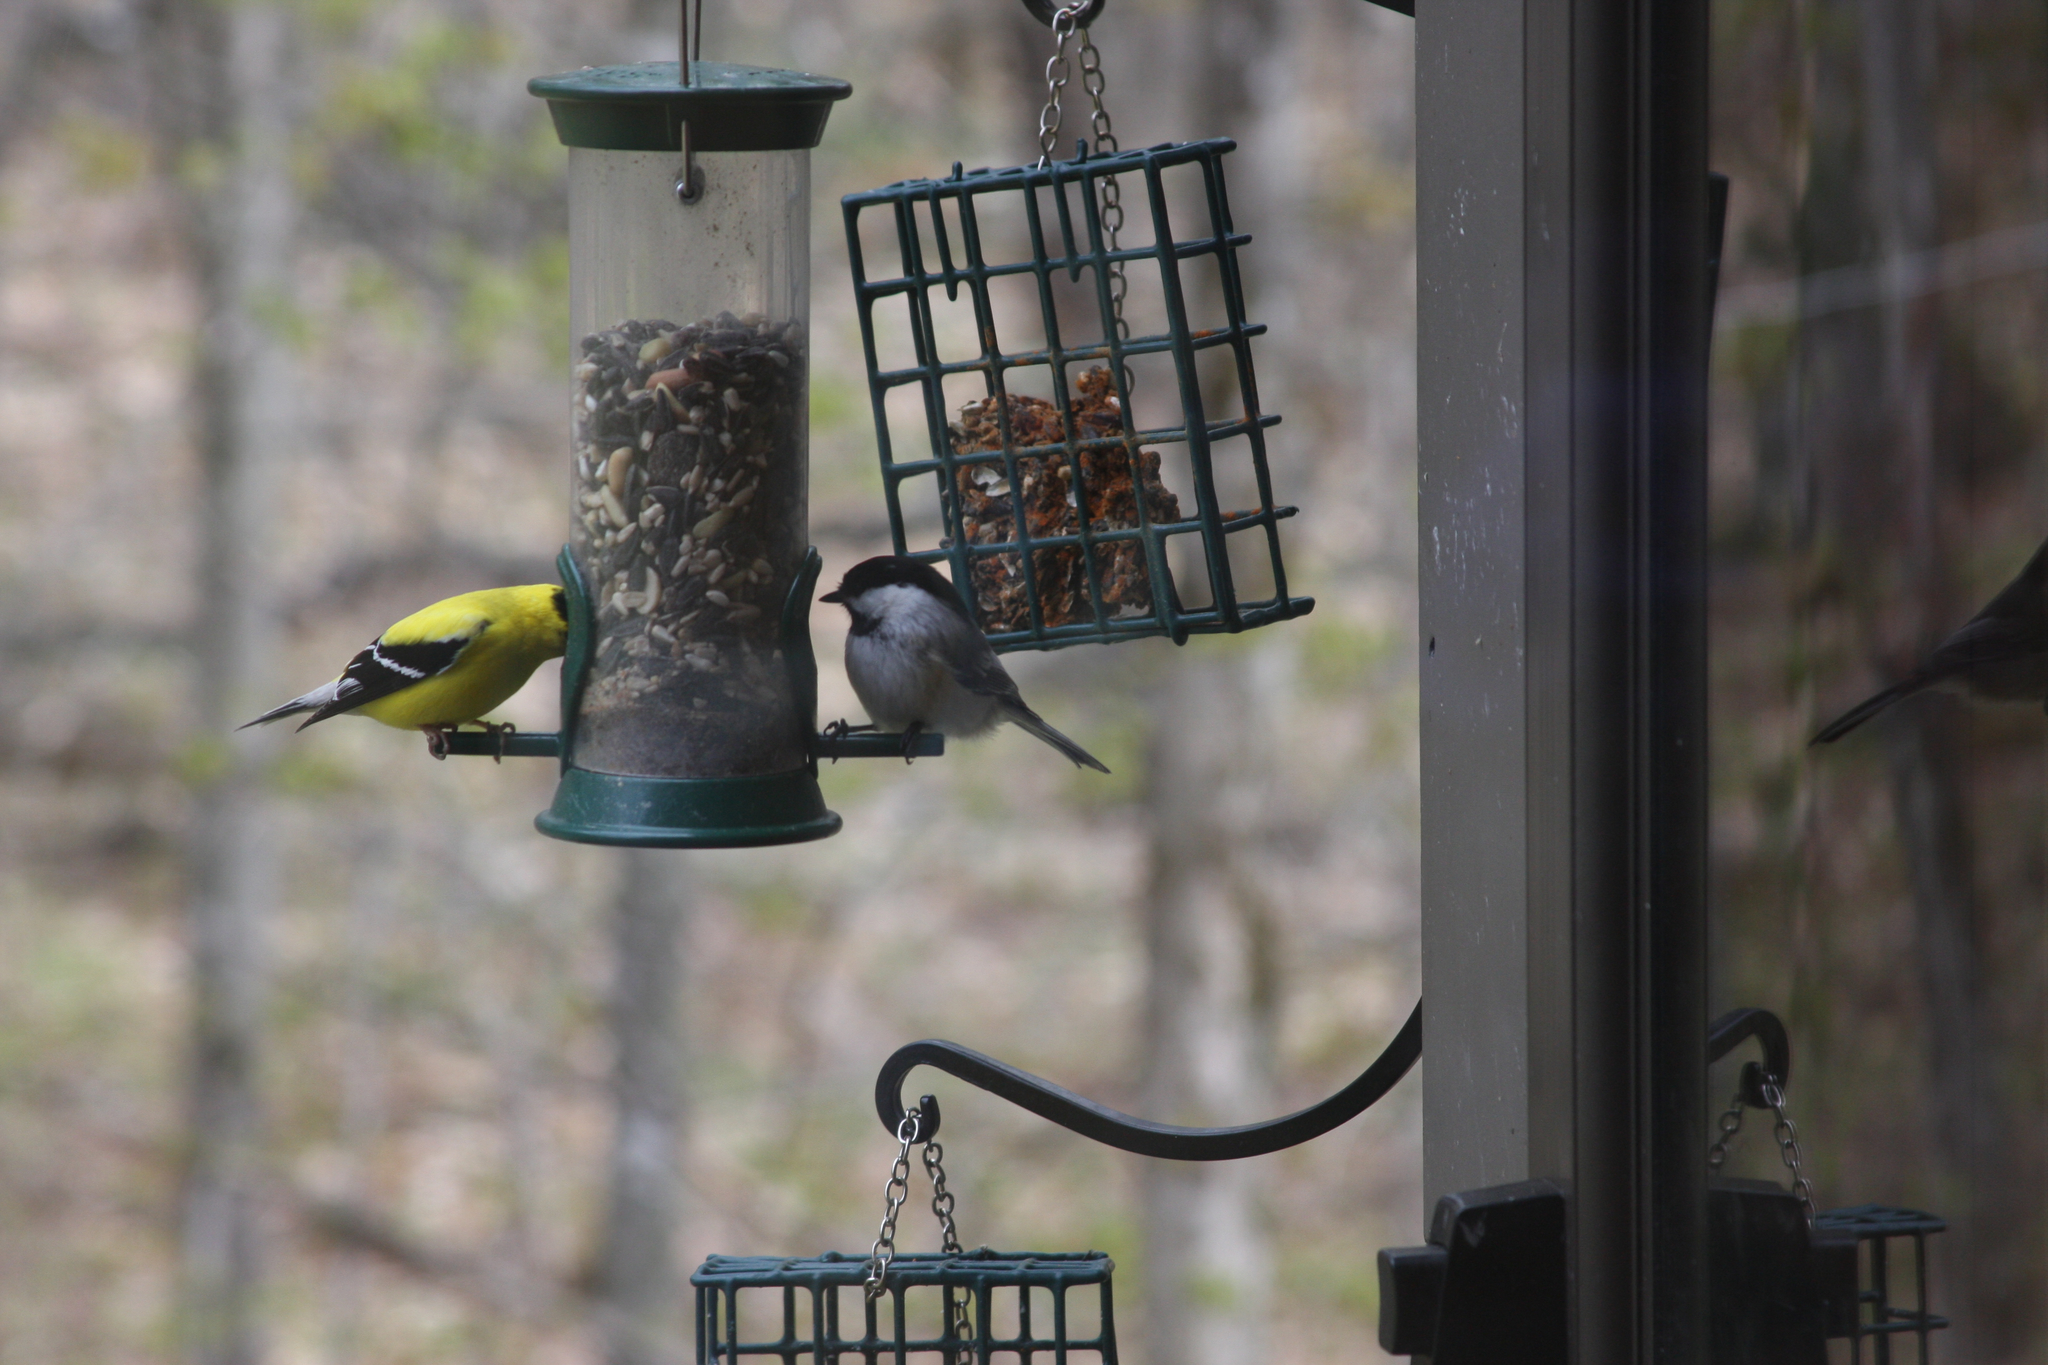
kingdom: Animalia
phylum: Chordata
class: Aves
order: Passeriformes
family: Paridae
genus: Poecile
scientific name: Poecile atricapillus
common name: Black-capped chickadee
